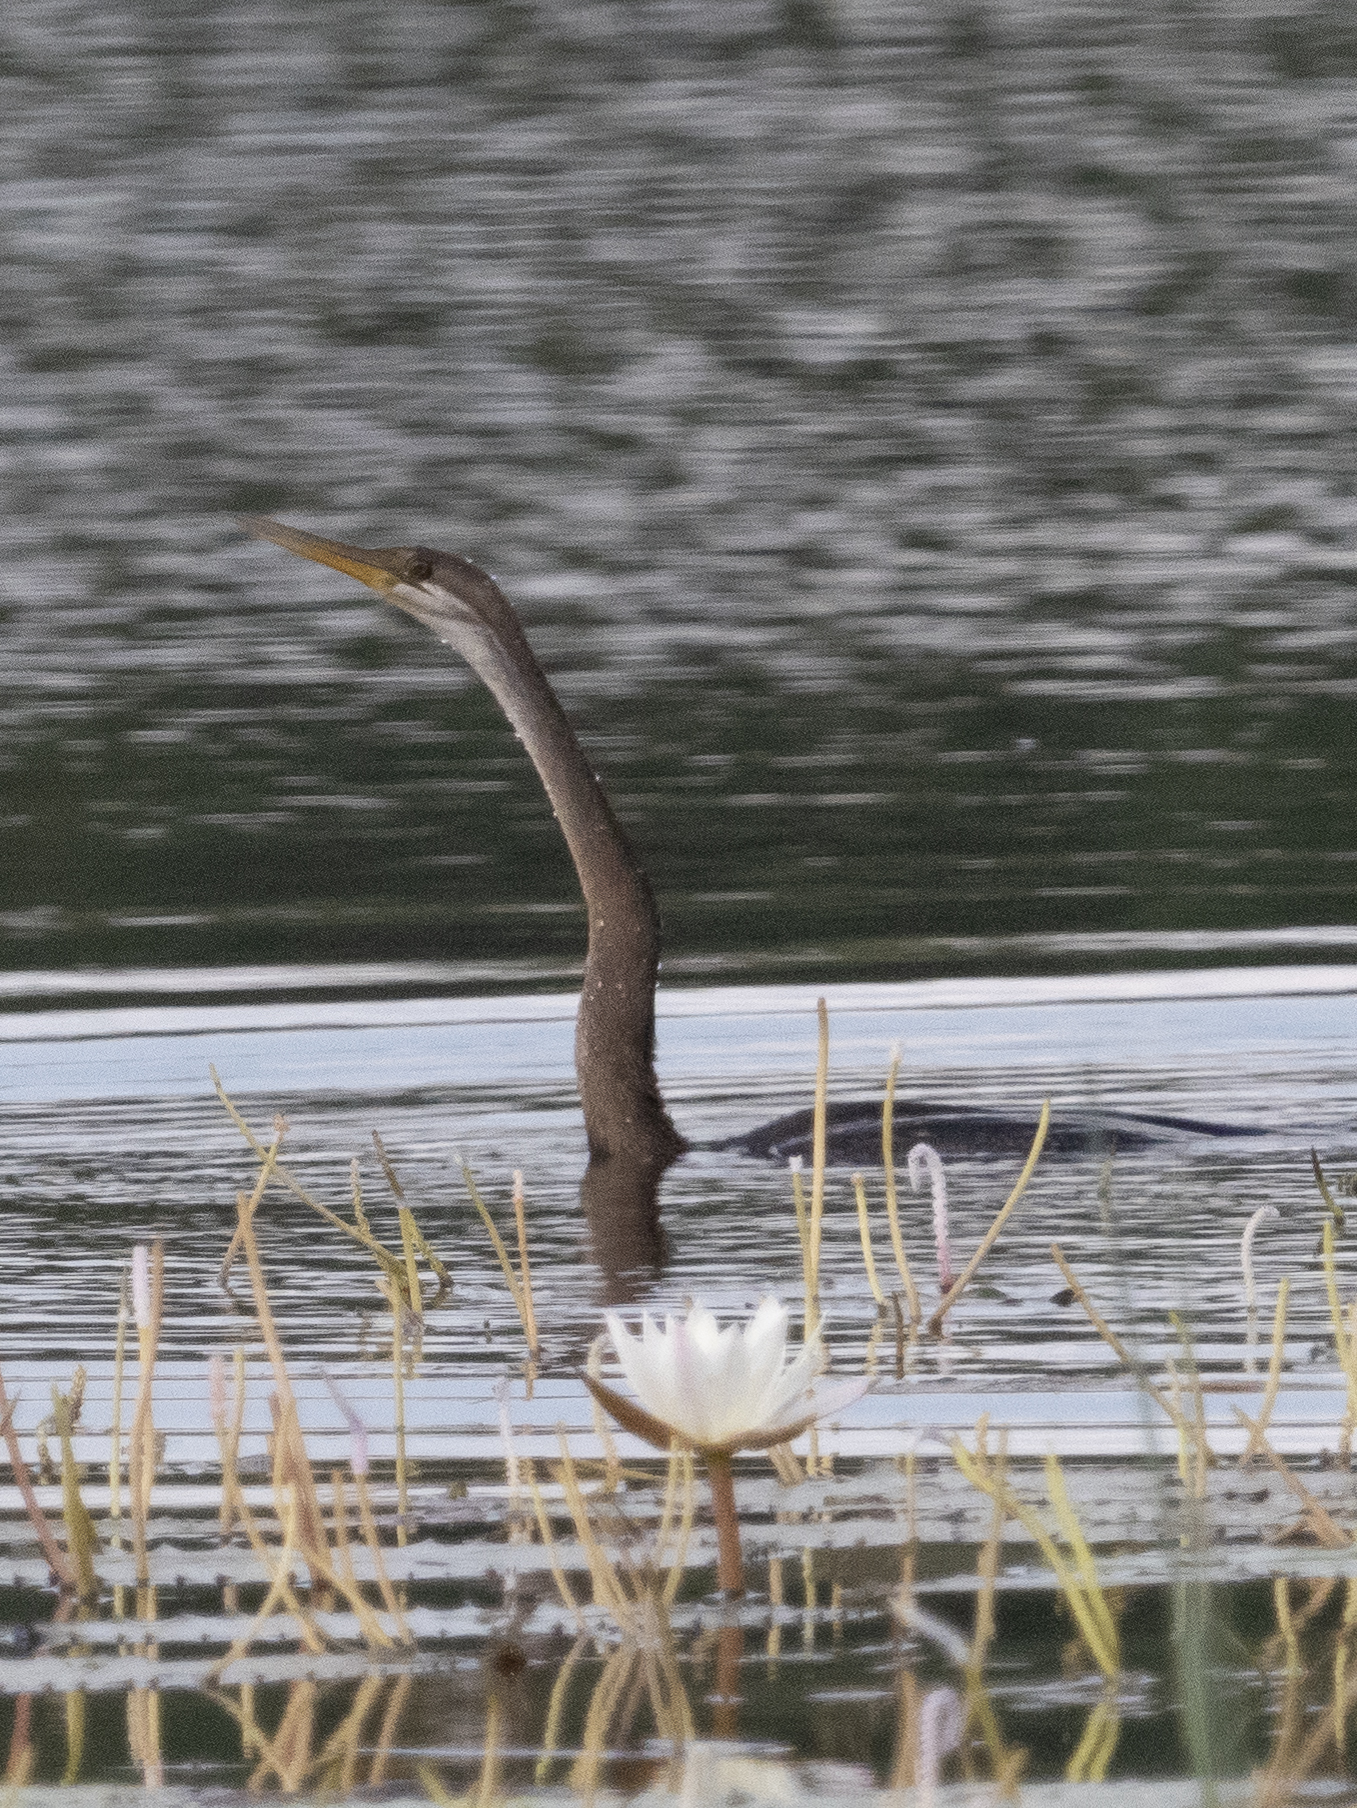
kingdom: Animalia
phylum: Chordata
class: Aves
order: Suliformes
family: Anhingidae
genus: Anhinga
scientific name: Anhinga melanogaster
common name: Oriental darter
